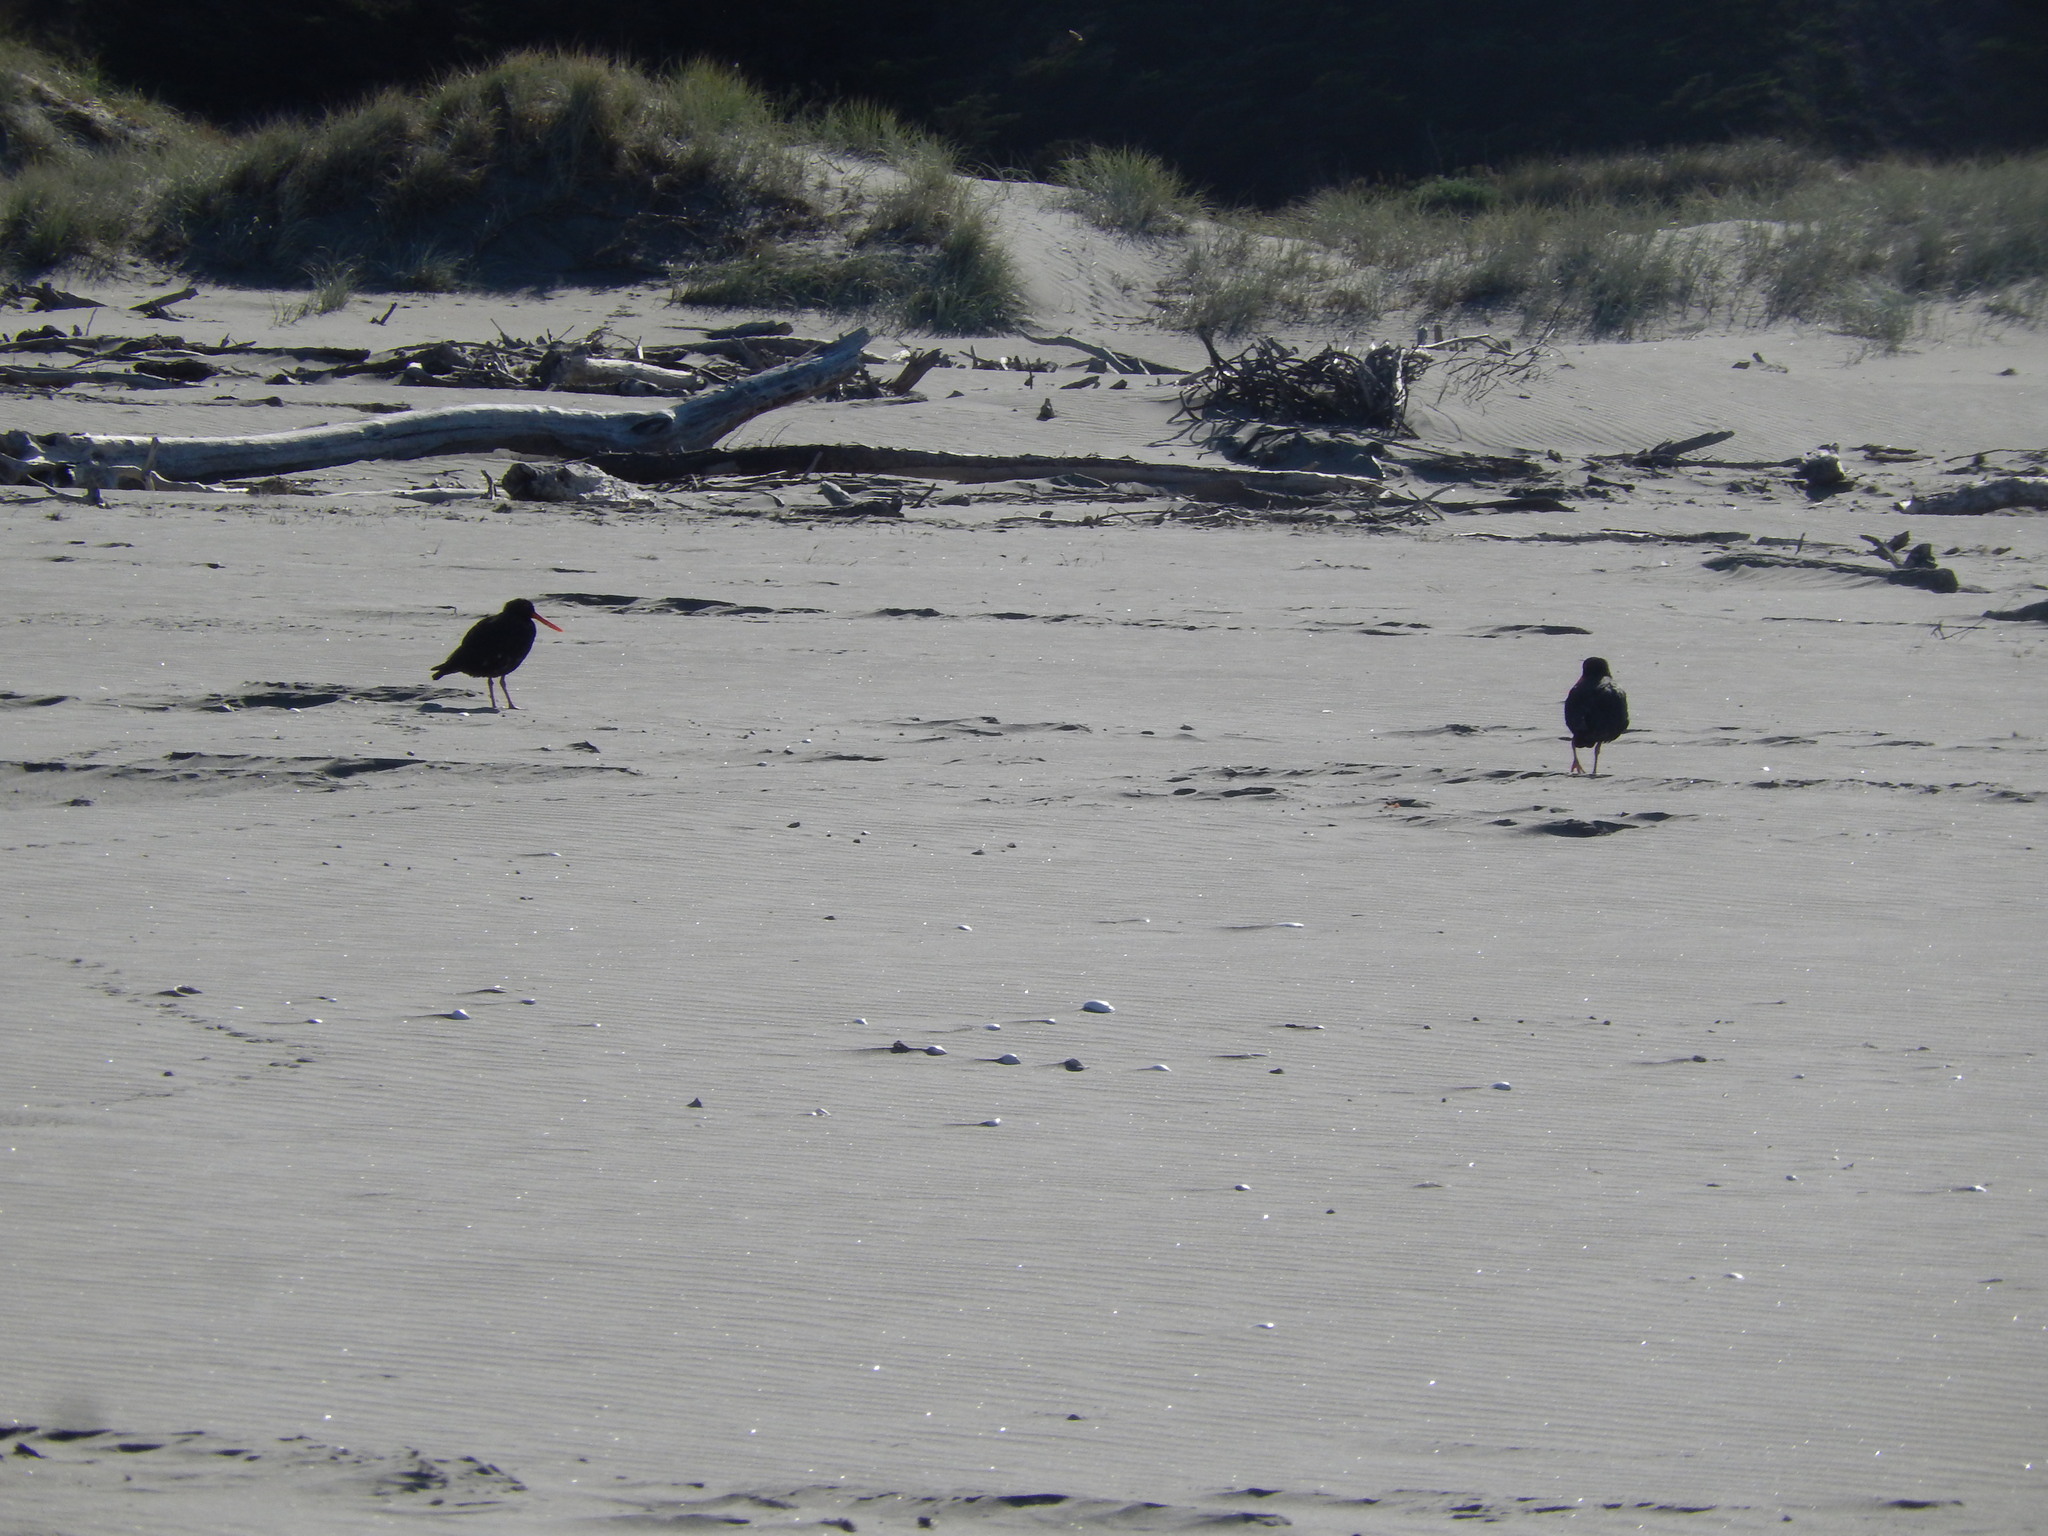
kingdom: Animalia
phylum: Chordata
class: Aves
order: Charadriiformes
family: Haematopodidae
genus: Haematopus
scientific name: Haematopus unicolor
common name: Variable oystercatcher
